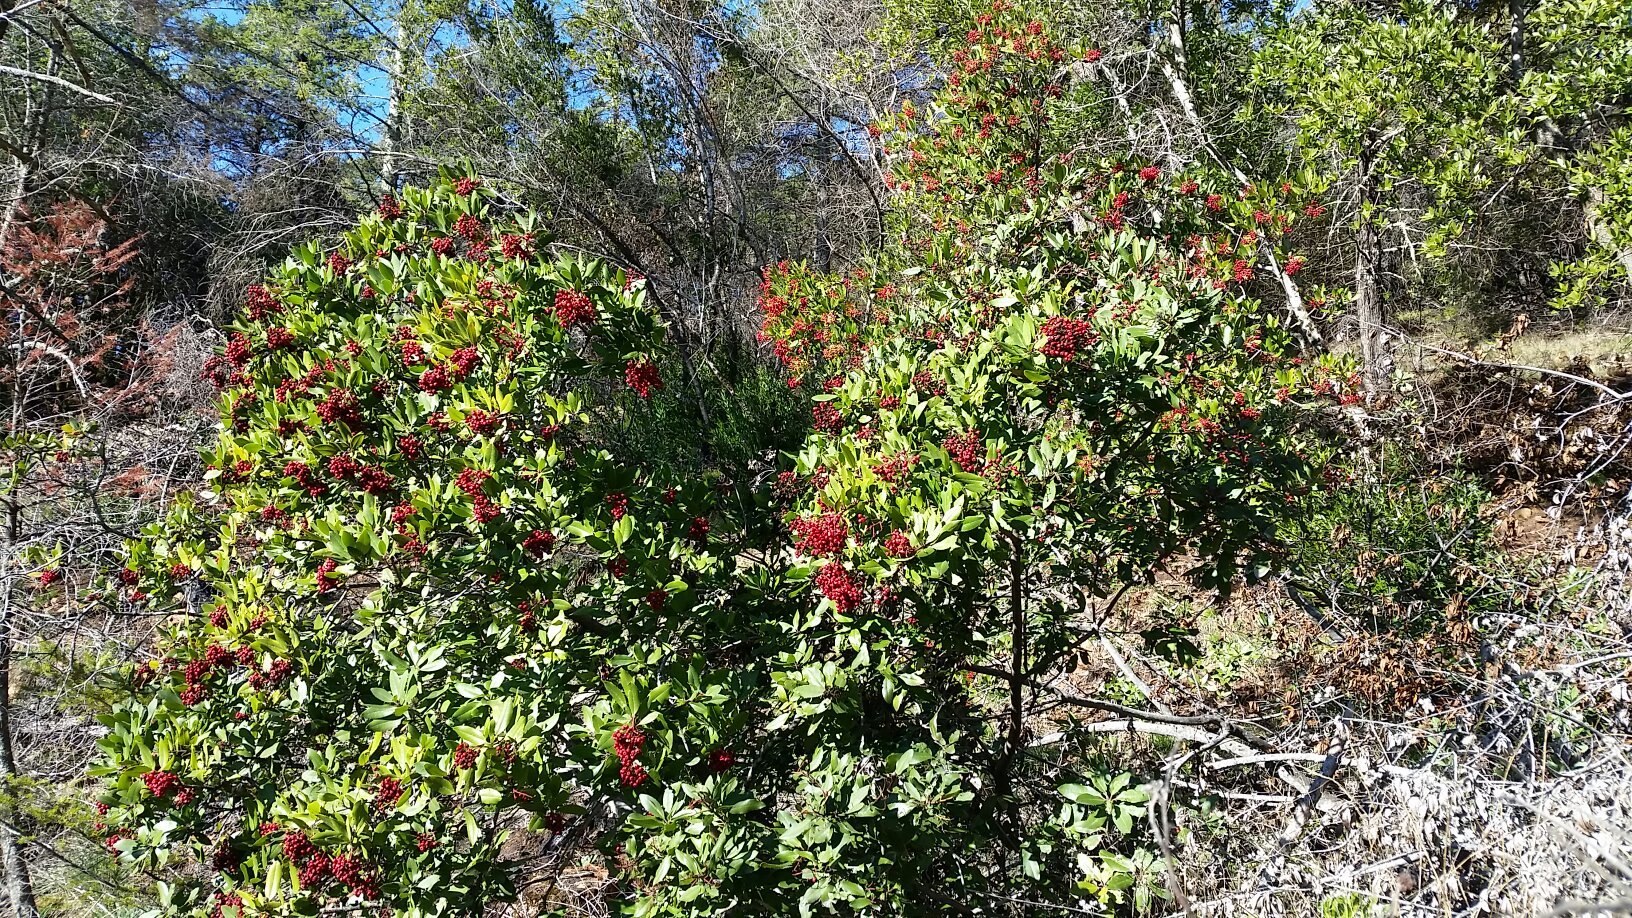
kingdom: Plantae
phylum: Tracheophyta
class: Magnoliopsida
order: Rosales
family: Rosaceae
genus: Heteromeles
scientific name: Heteromeles arbutifolia
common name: California-holly
